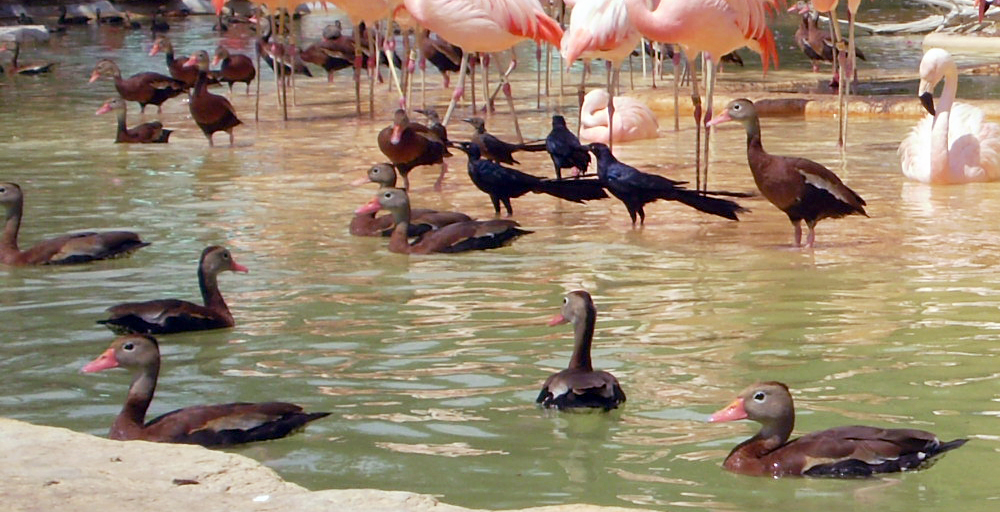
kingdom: Animalia
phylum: Chordata
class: Aves
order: Anseriformes
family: Anatidae
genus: Dendrocygna
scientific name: Dendrocygna autumnalis
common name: Black-bellied whistling duck
